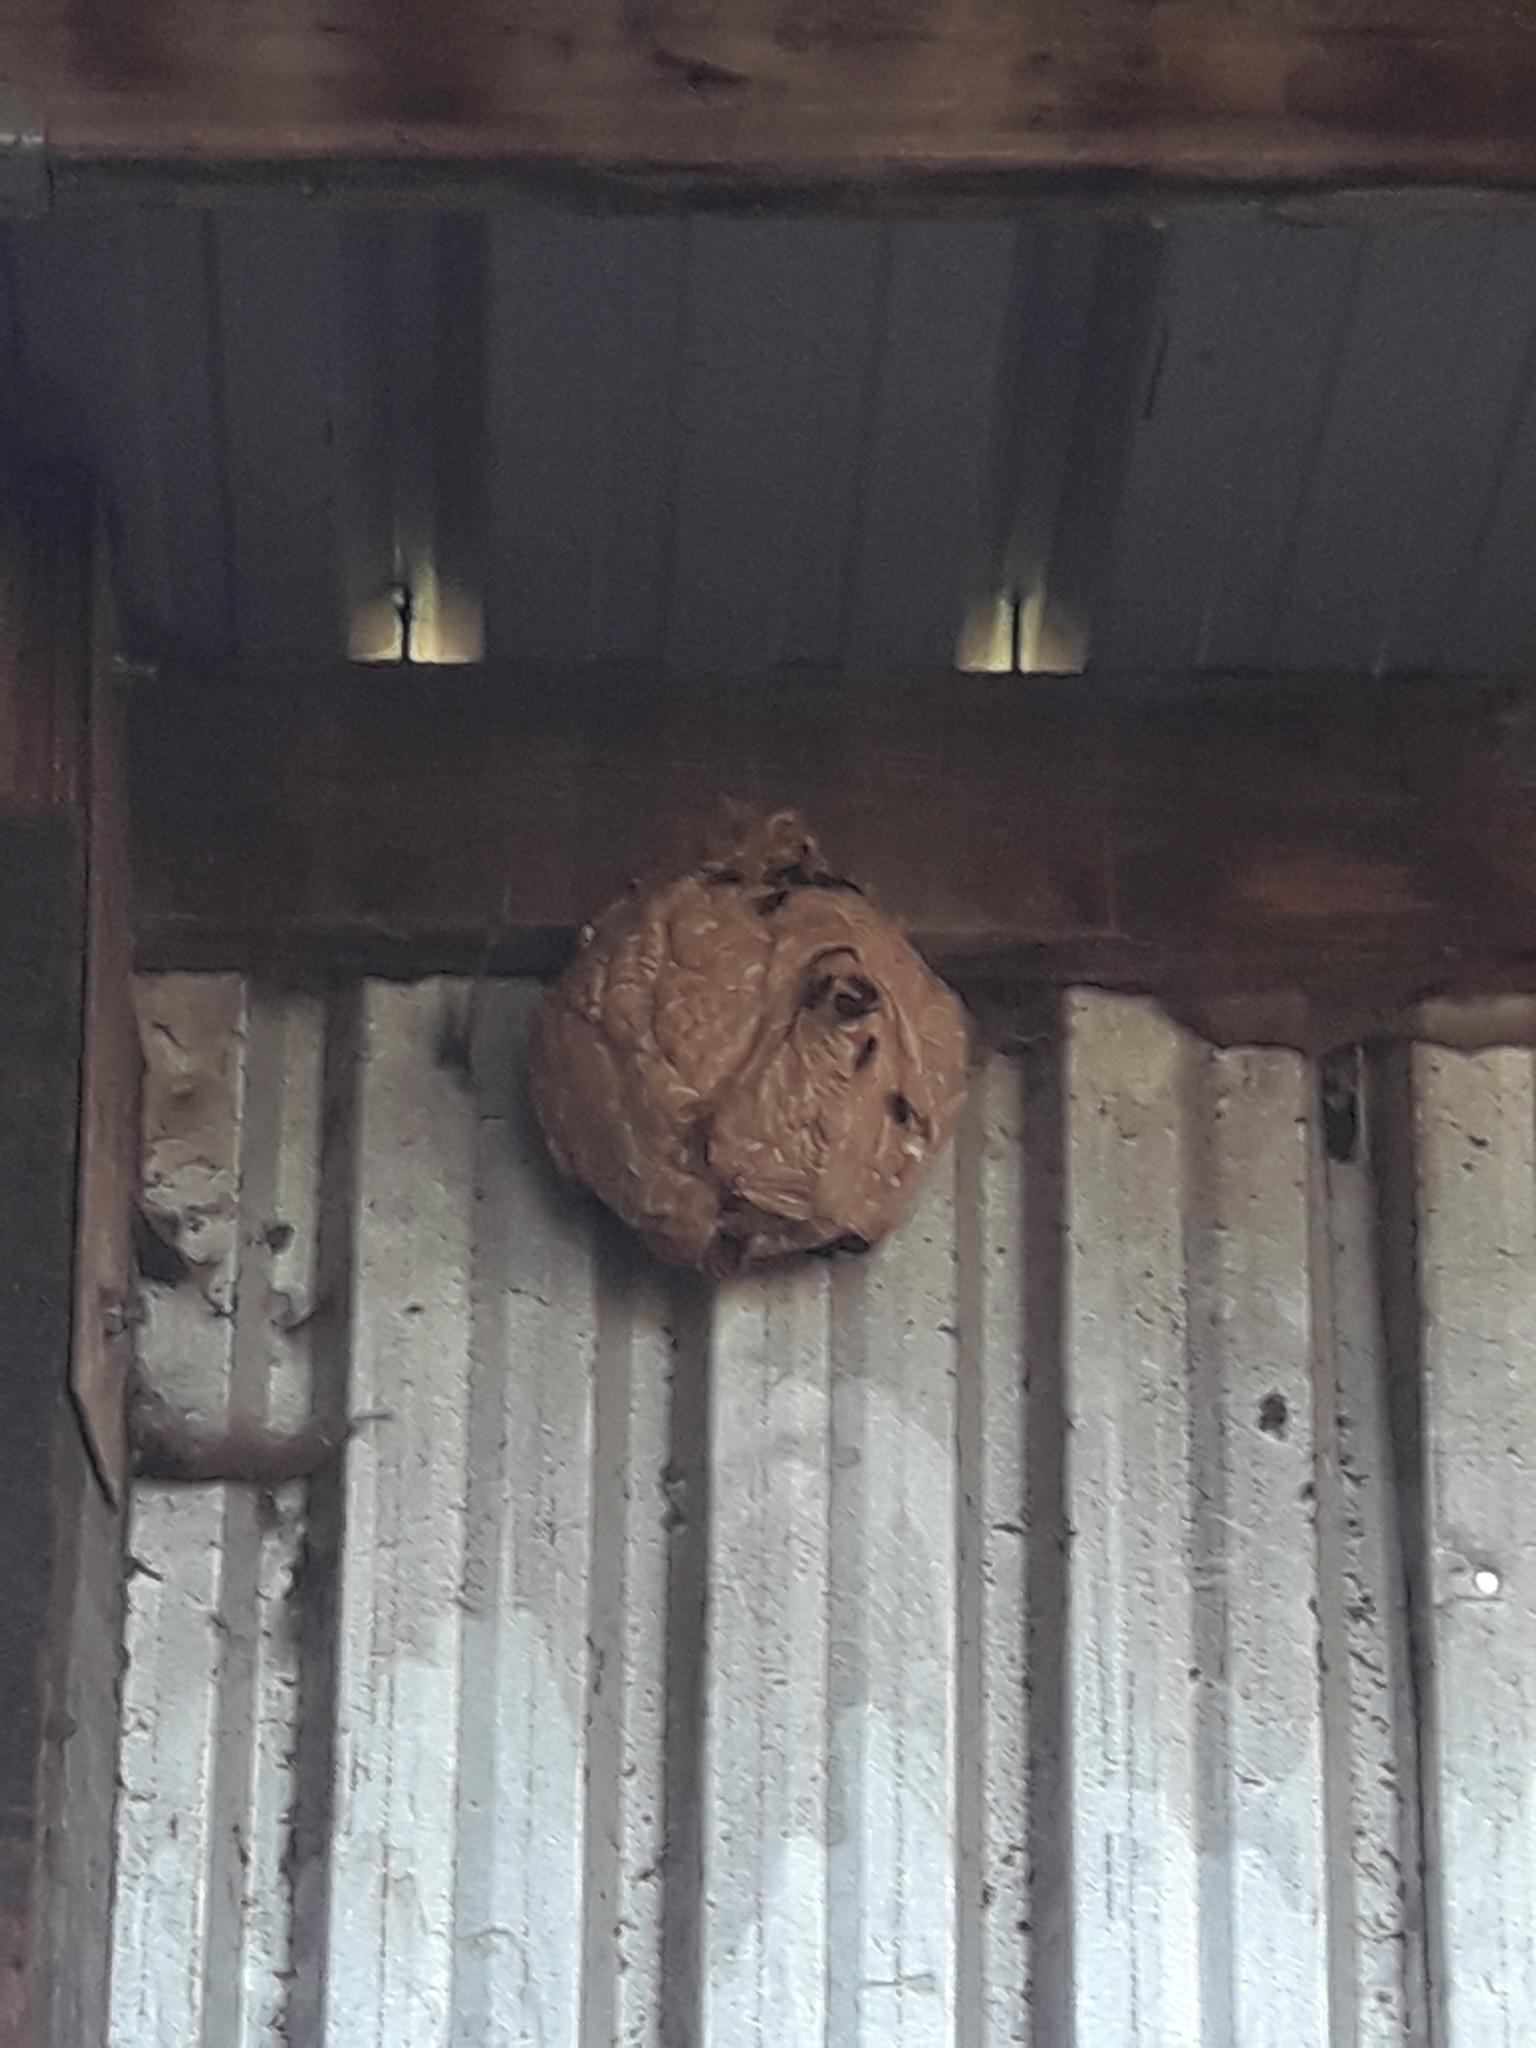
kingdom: Animalia
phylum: Arthropoda
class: Insecta
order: Hymenoptera
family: Vespidae
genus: Vespa
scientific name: Vespa velutina
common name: Asian hornet
